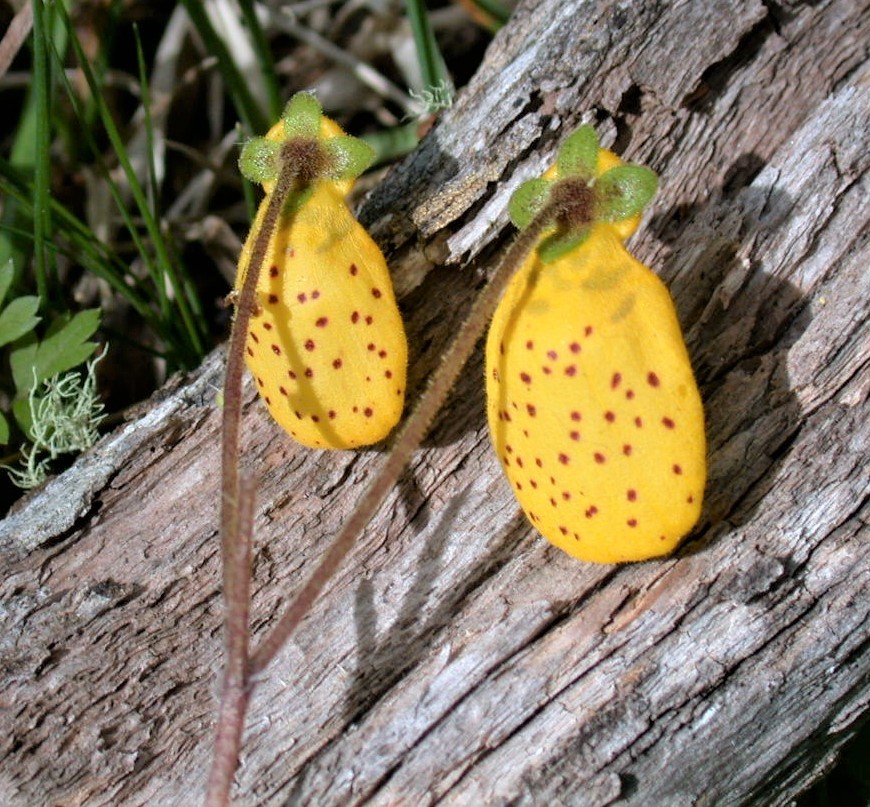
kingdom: Plantae
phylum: Tracheophyta
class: Magnoliopsida
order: Lamiales
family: Calceolariaceae
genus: Calceolaria
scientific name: Calceolaria biflora
